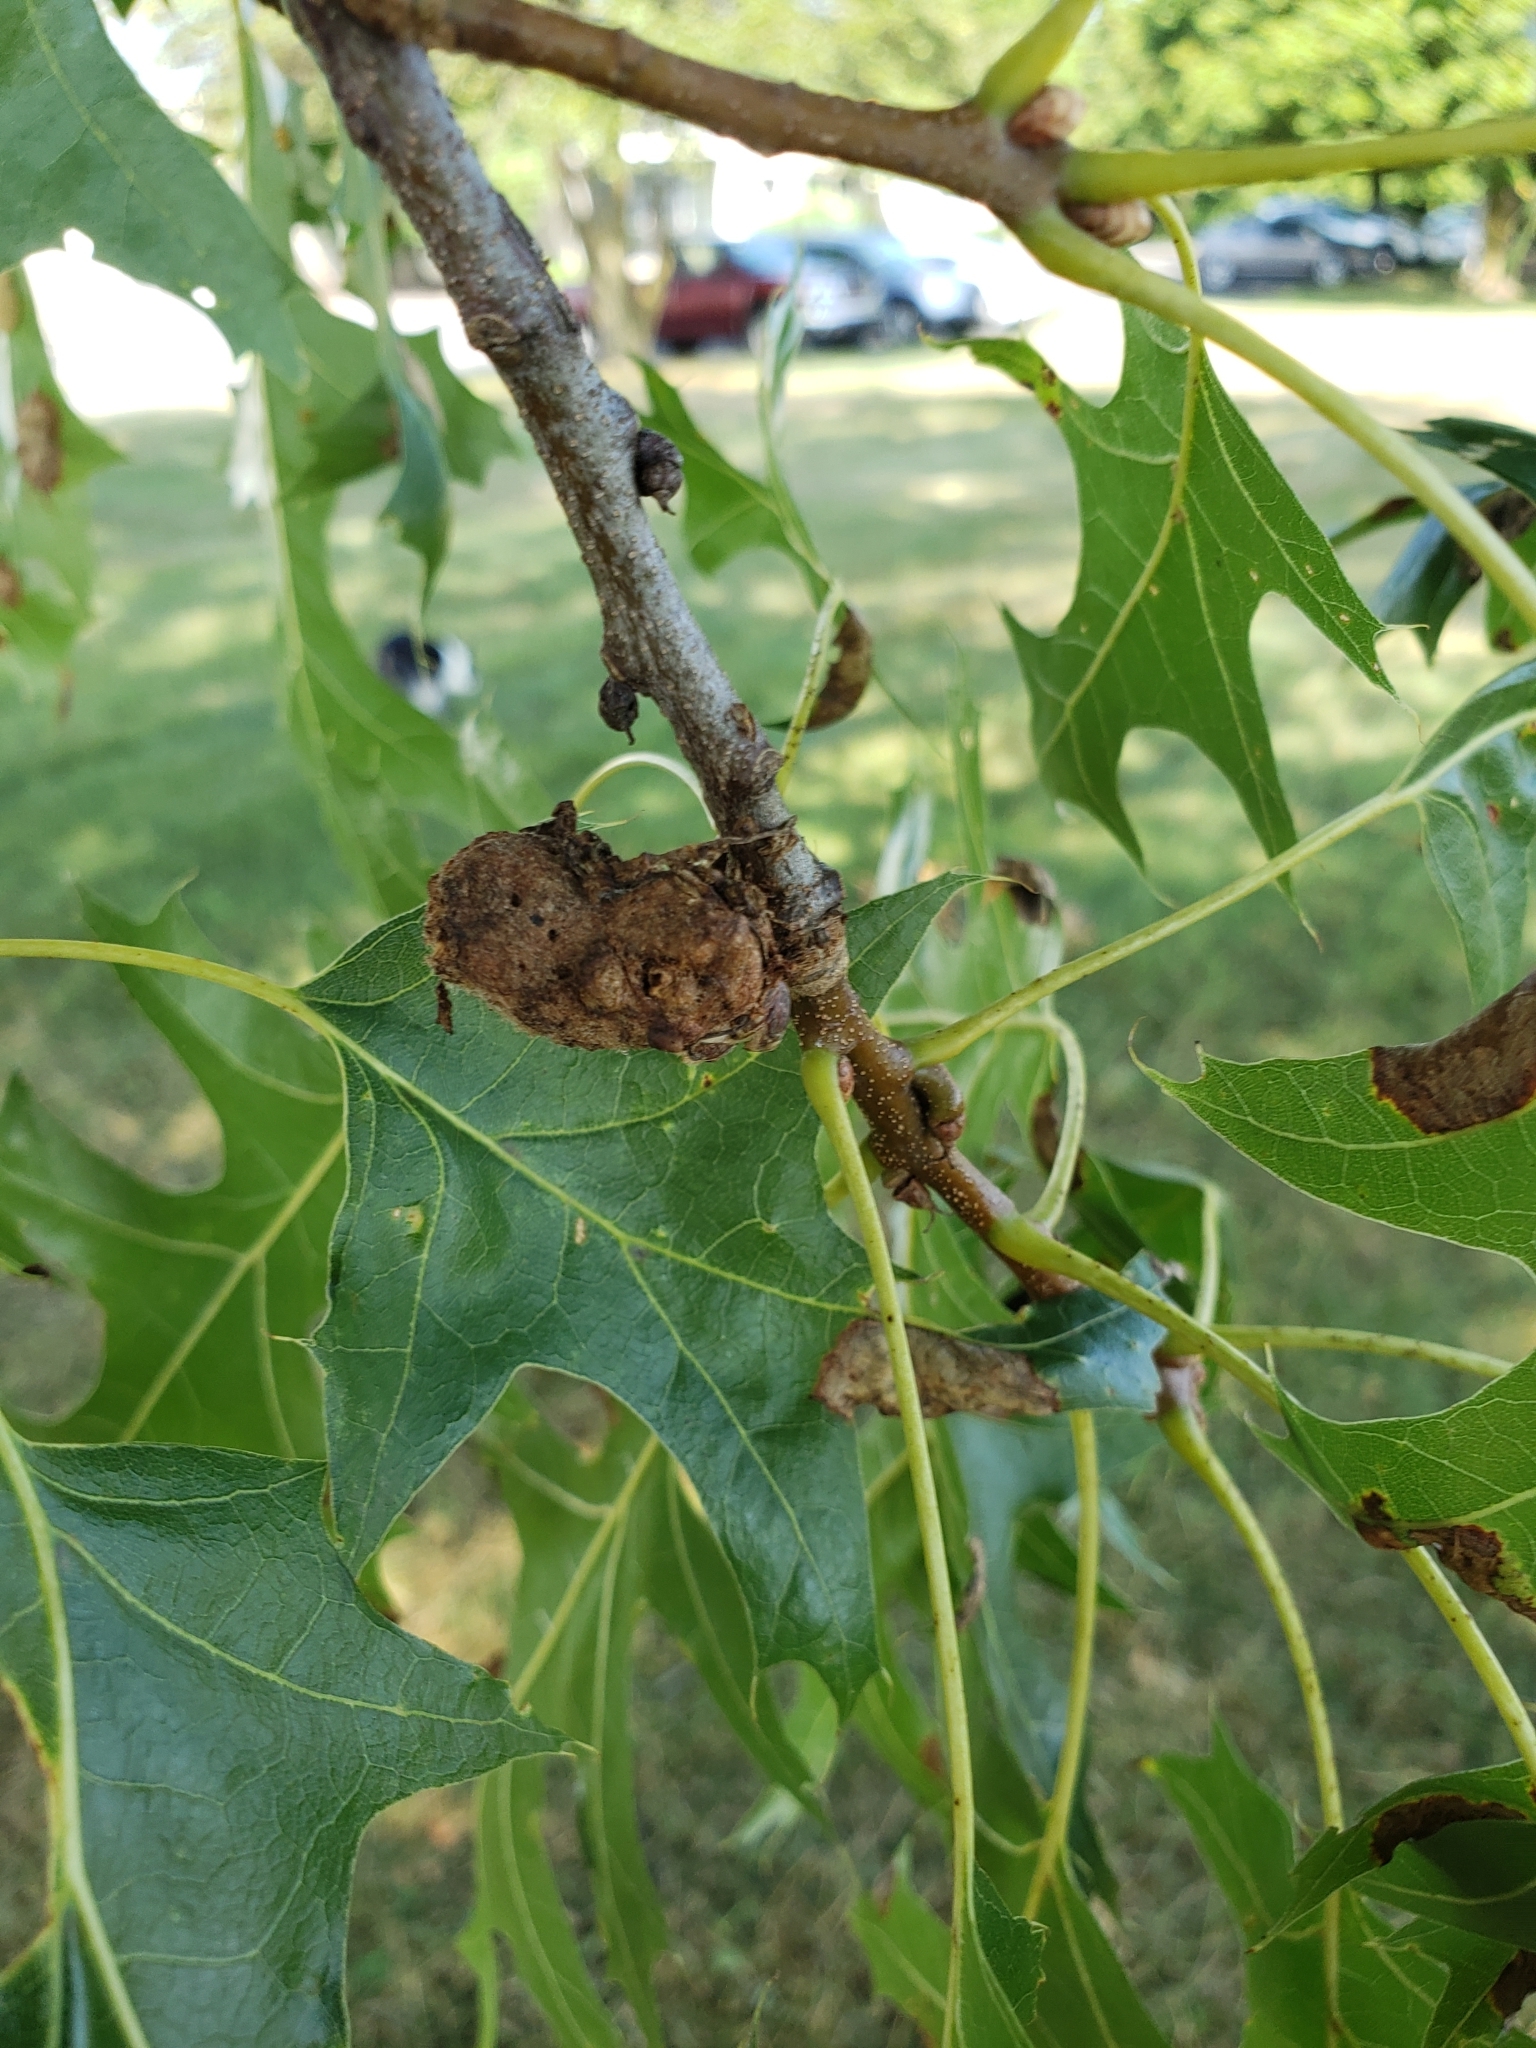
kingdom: Animalia
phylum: Arthropoda
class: Insecta
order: Hymenoptera
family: Cynipidae
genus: Callirhytis
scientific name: Callirhytis
